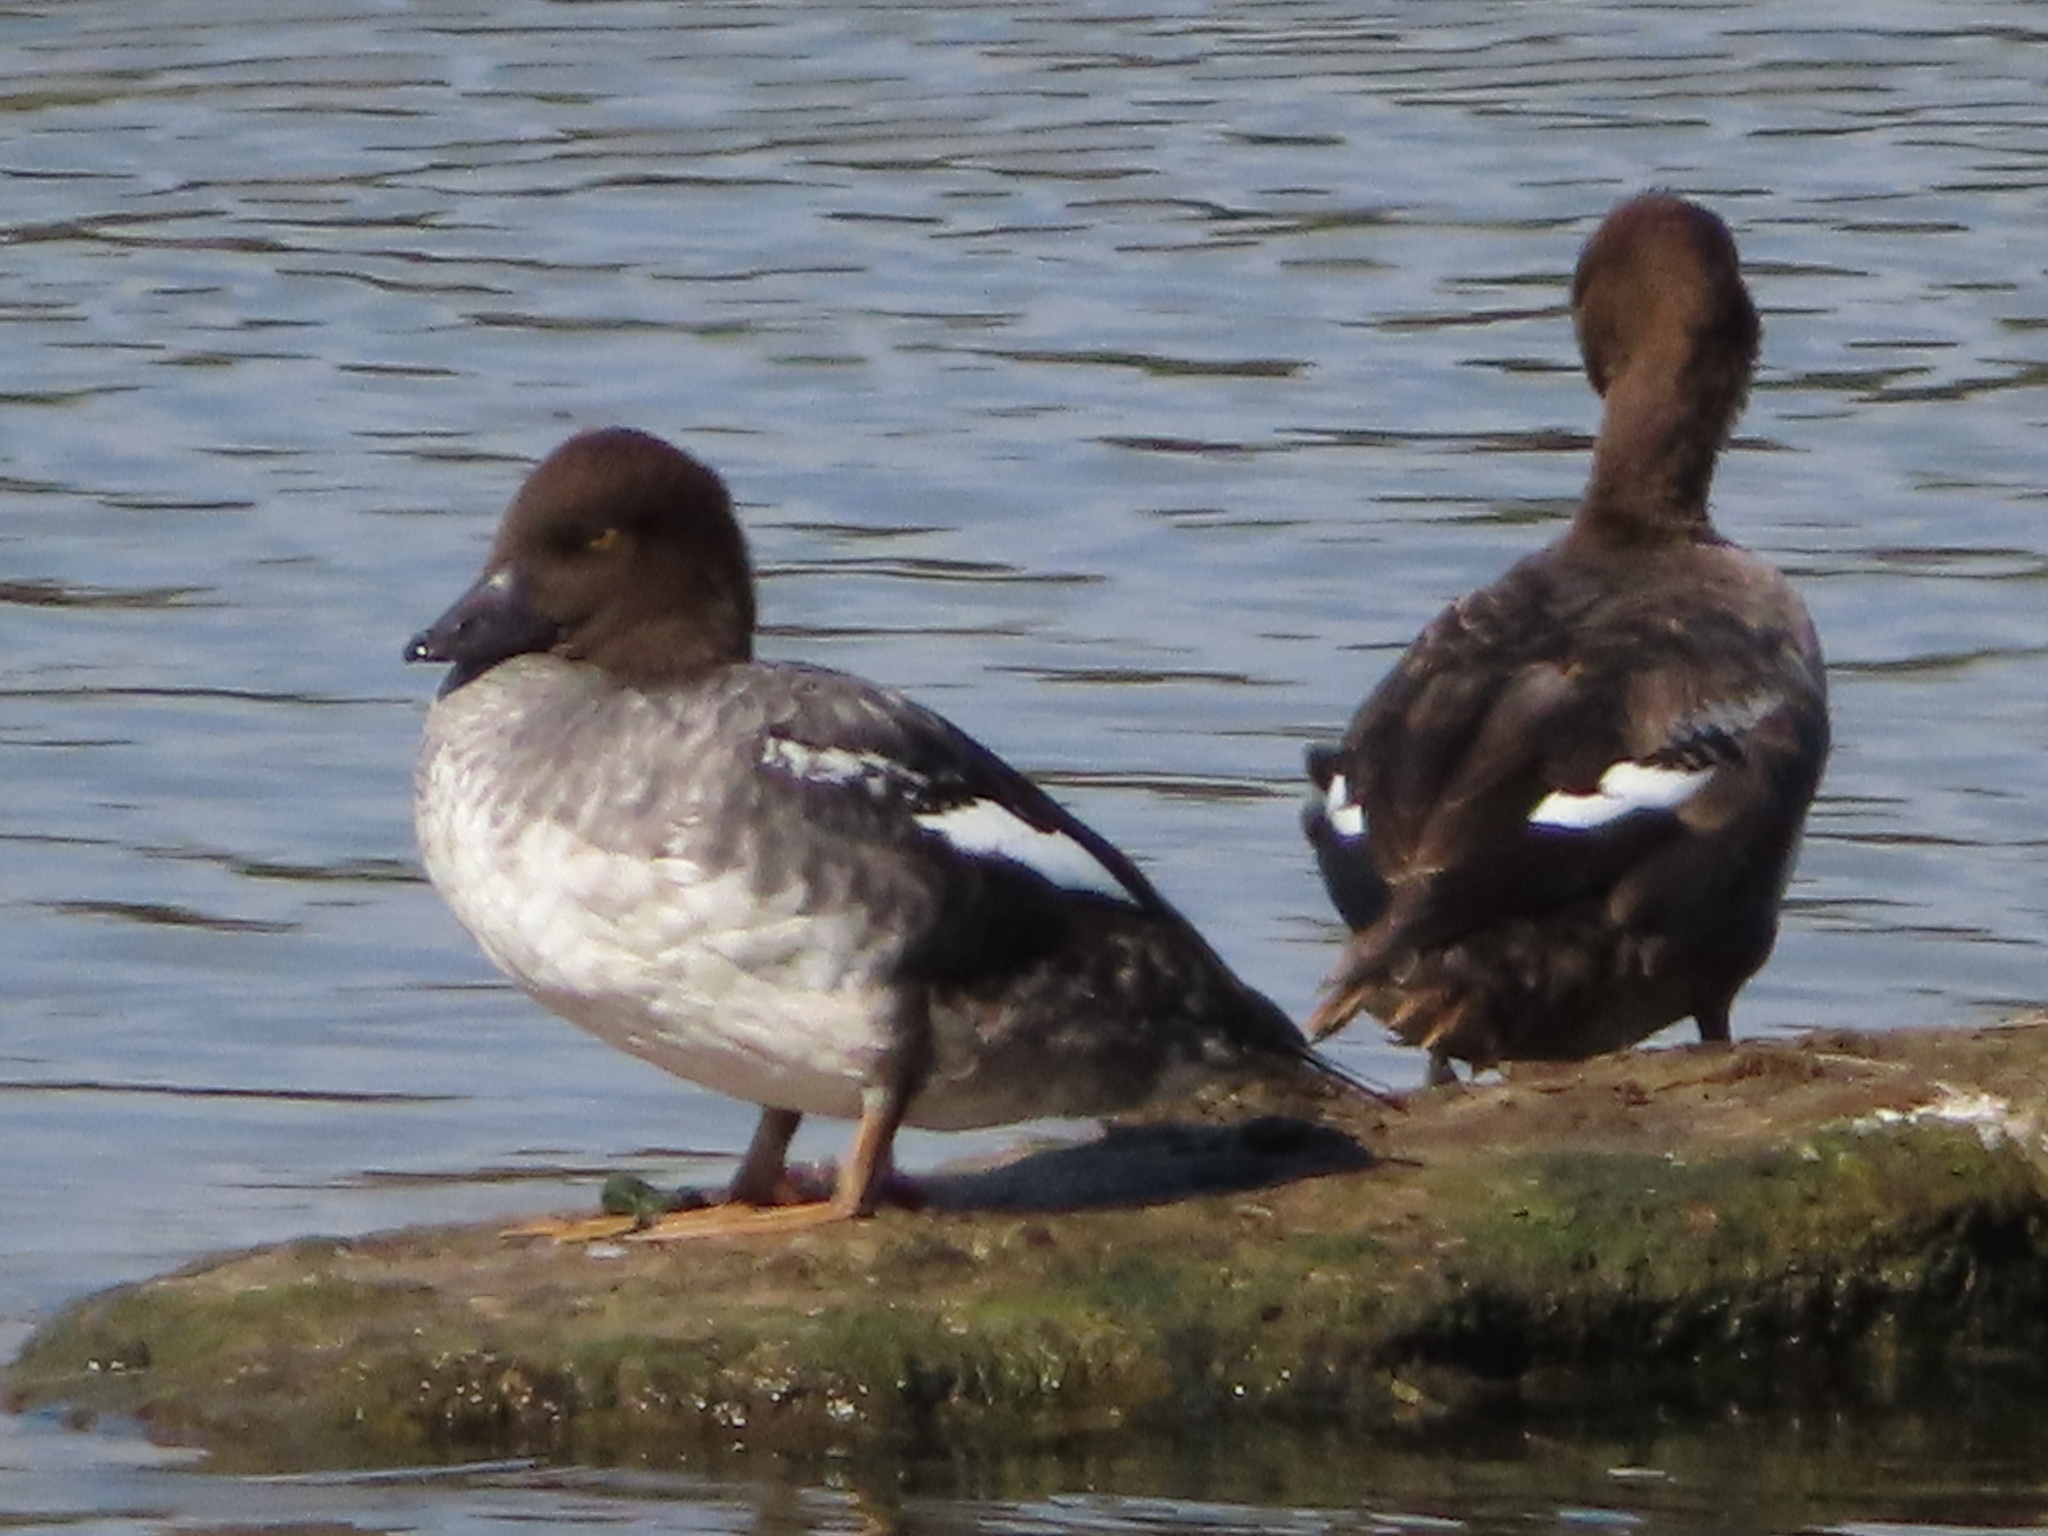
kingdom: Animalia
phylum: Chordata
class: Aves
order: Anseriformes
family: Anatidae
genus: Bucephala
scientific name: Bucephala clangula
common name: Common goldeneye
